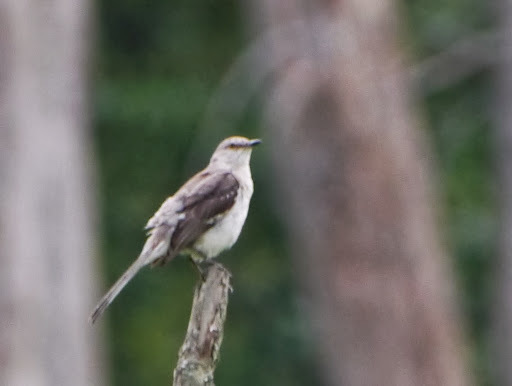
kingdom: Animalia
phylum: Chordata
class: Aves
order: Passeriformes
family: Mimidae
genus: Mimus
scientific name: Mimus polyglottos
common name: Northern mockingbird
